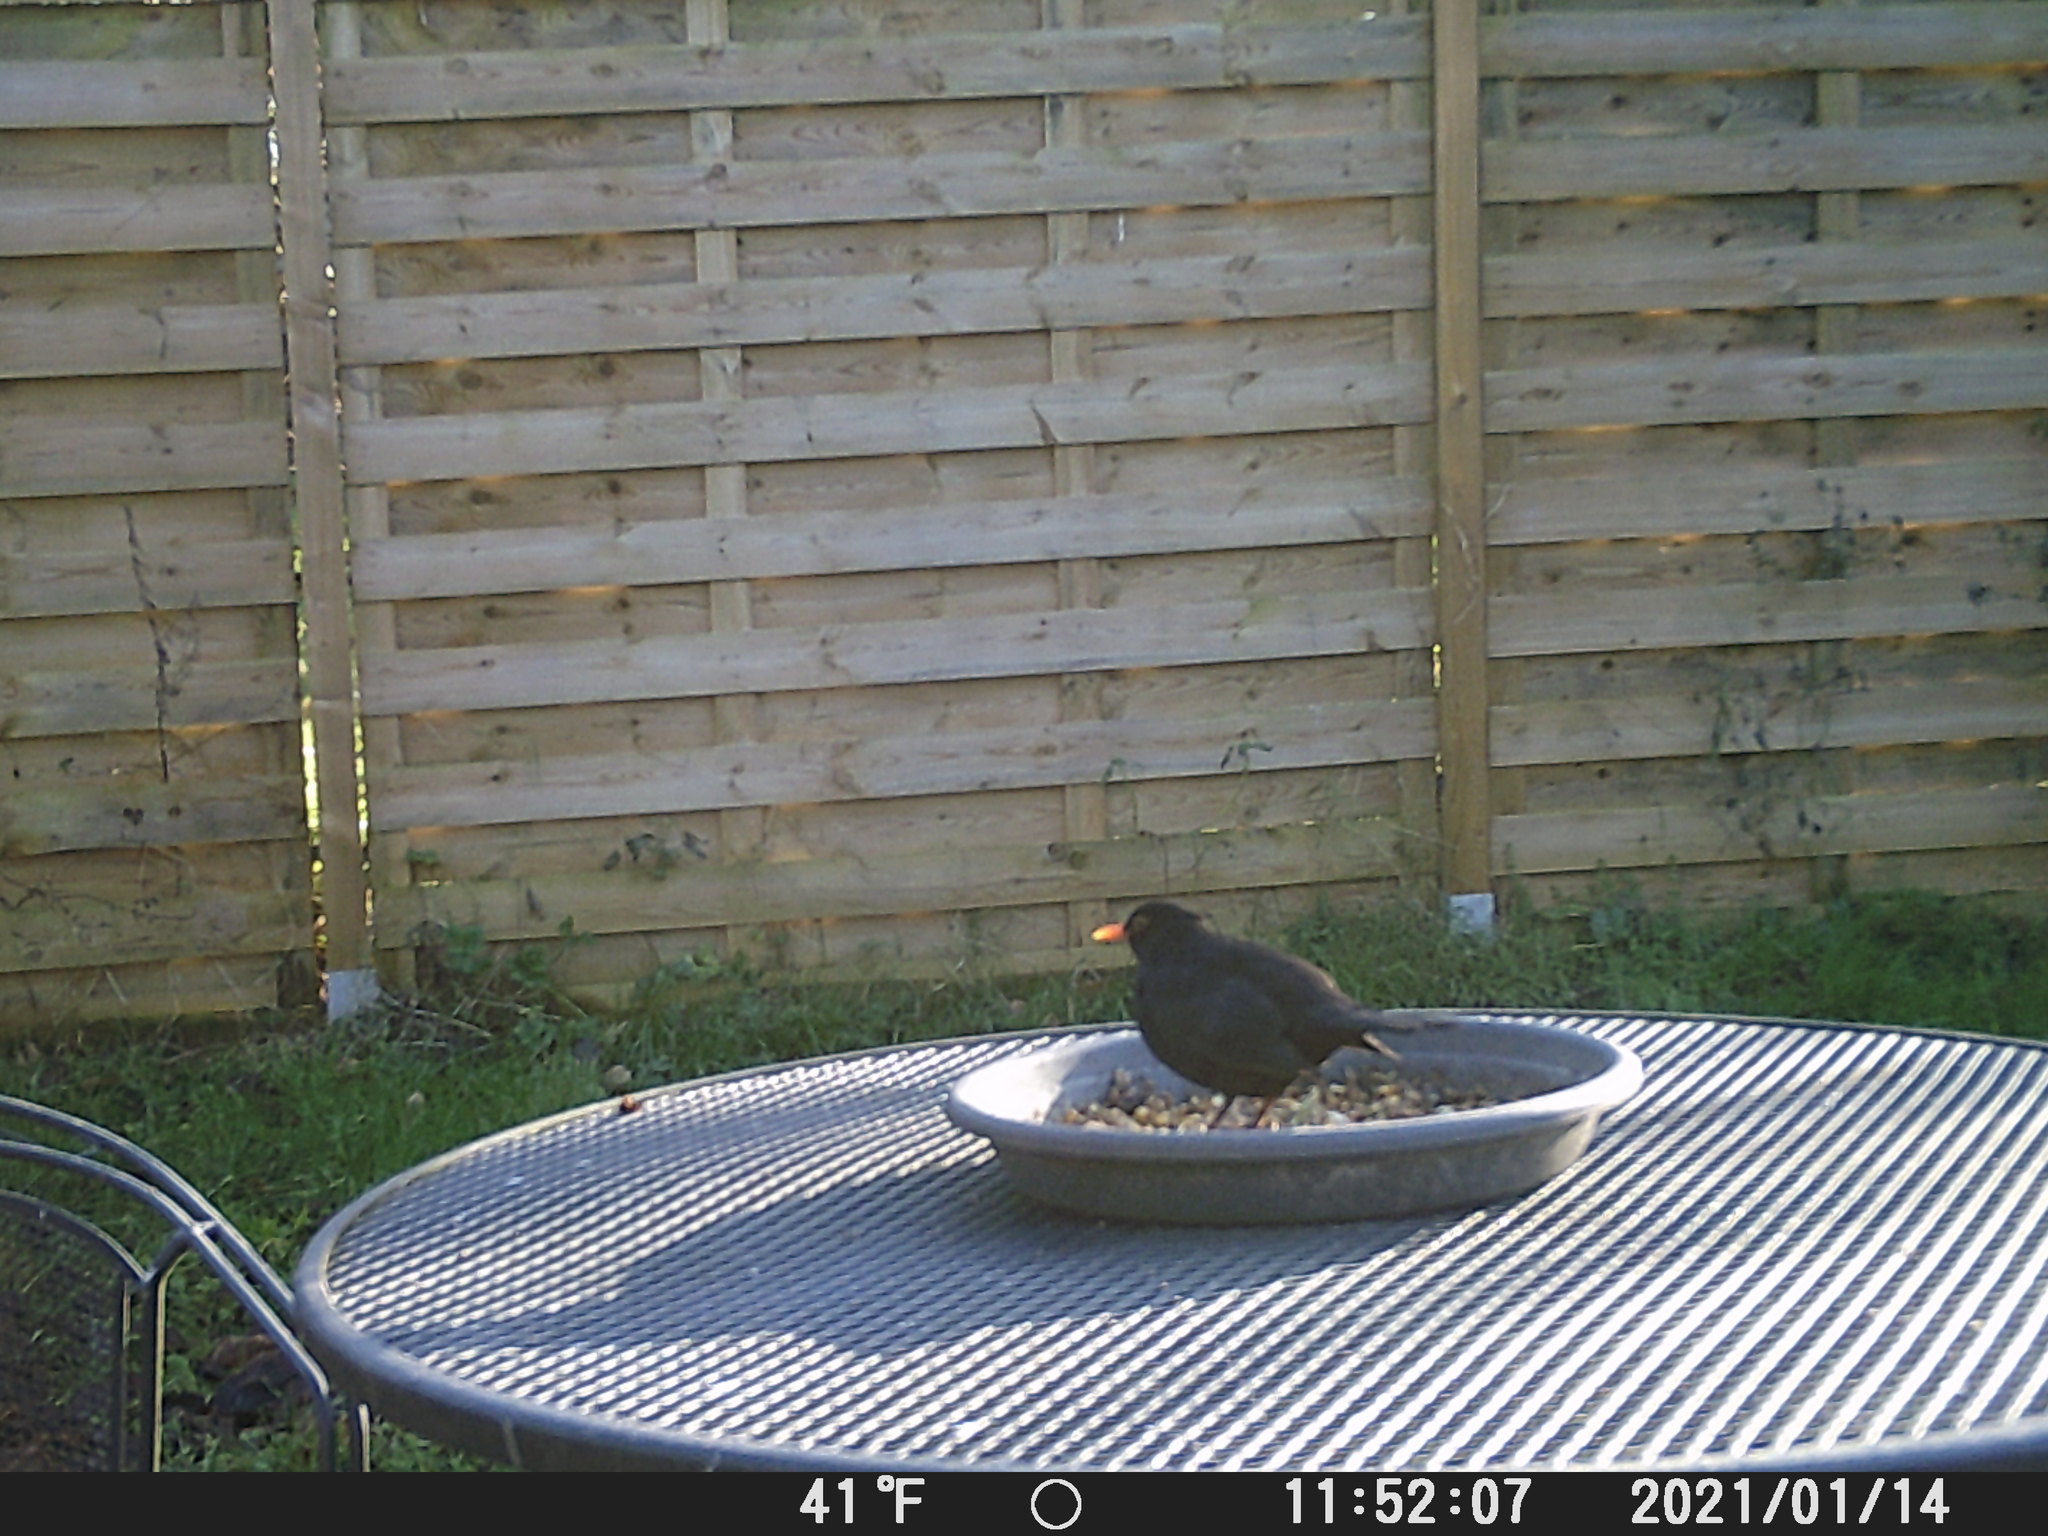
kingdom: Animalia
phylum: Chordata
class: Aves
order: Passeriformes
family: Turdidae
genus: Turdus
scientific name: Turdus merula
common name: Common blackbird
